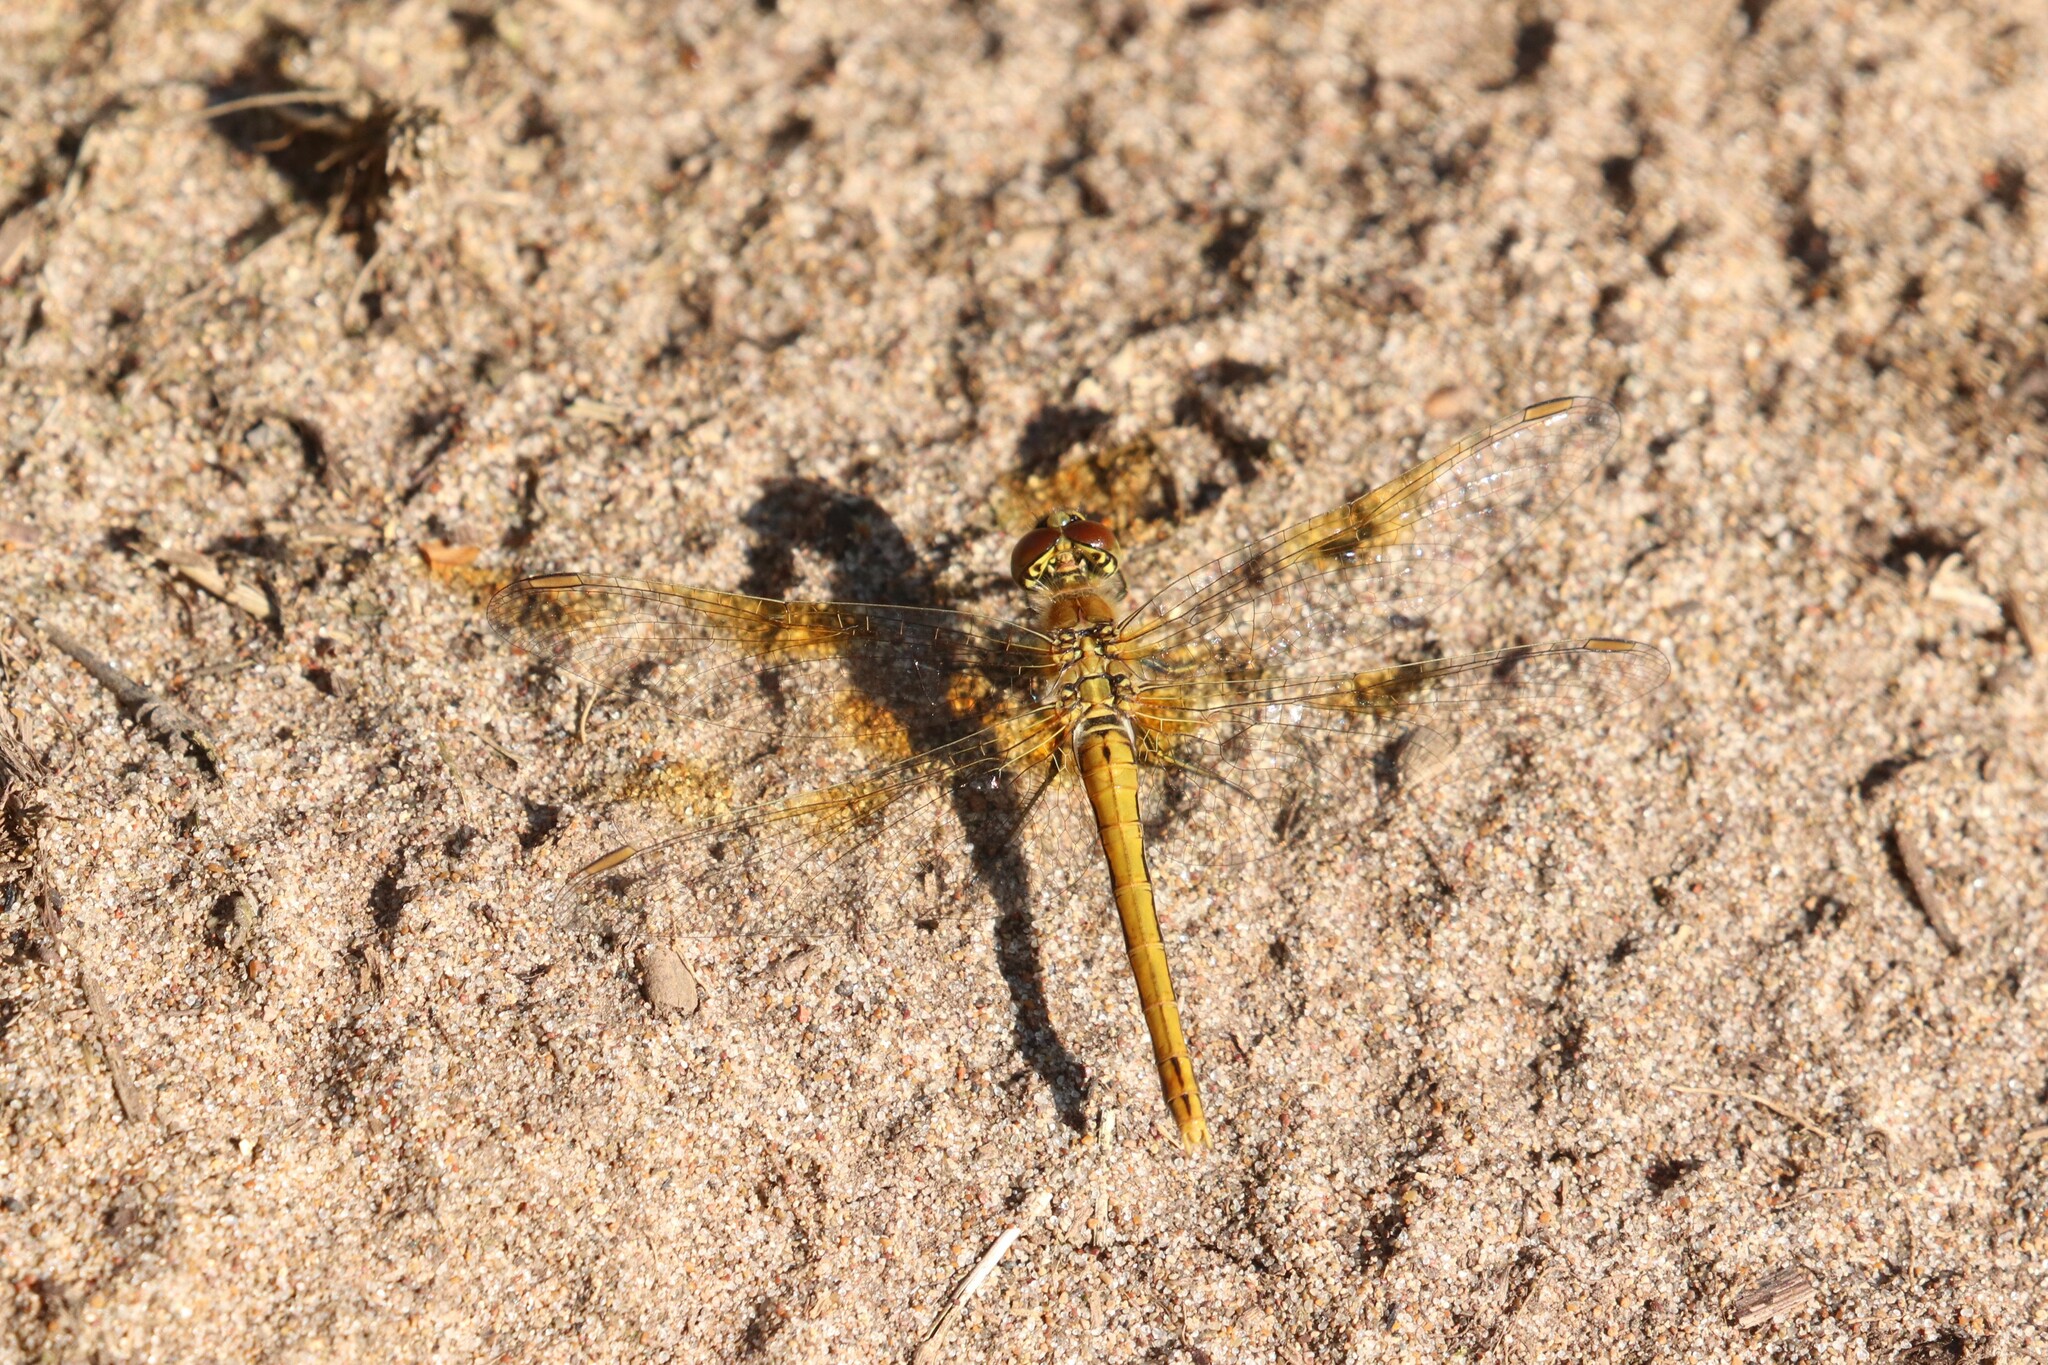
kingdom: Animalia
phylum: Arthropoda
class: Insecta
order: Odonata
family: Libellulidae
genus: Sympetrum
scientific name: Sympetrum flaveolum
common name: Yellow-winged darter
